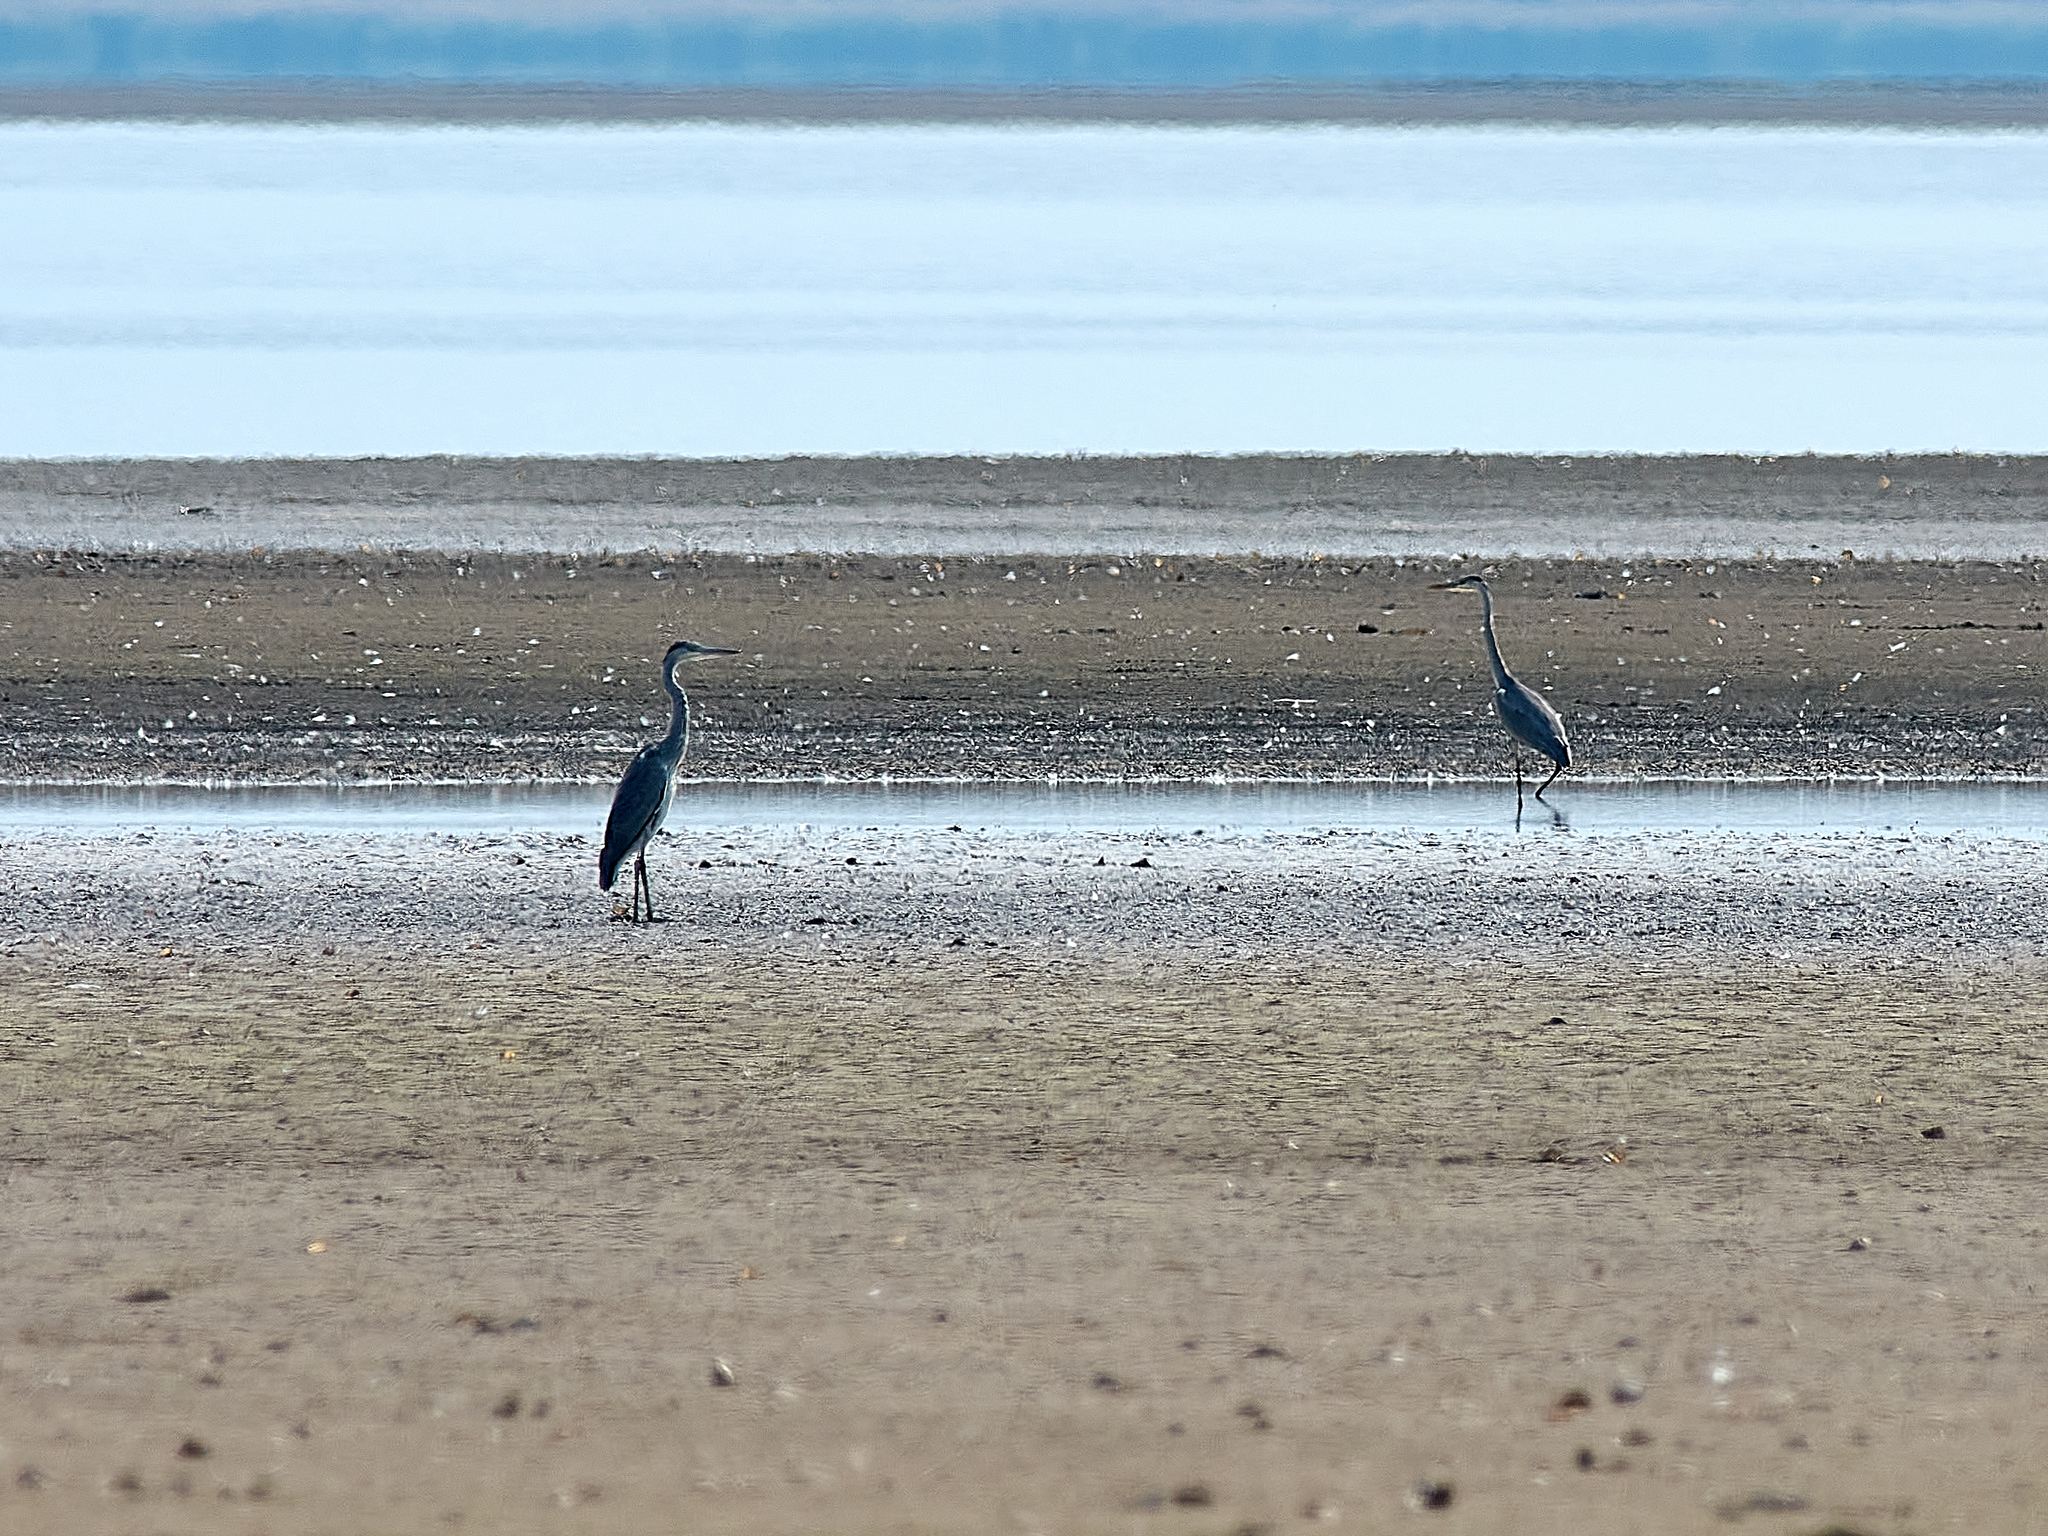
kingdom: Animalia
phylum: Chordata
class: Aves
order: Pelecaniformes
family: Ardeidae
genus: Ardea
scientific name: Ardea cinerea
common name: Grey heron
